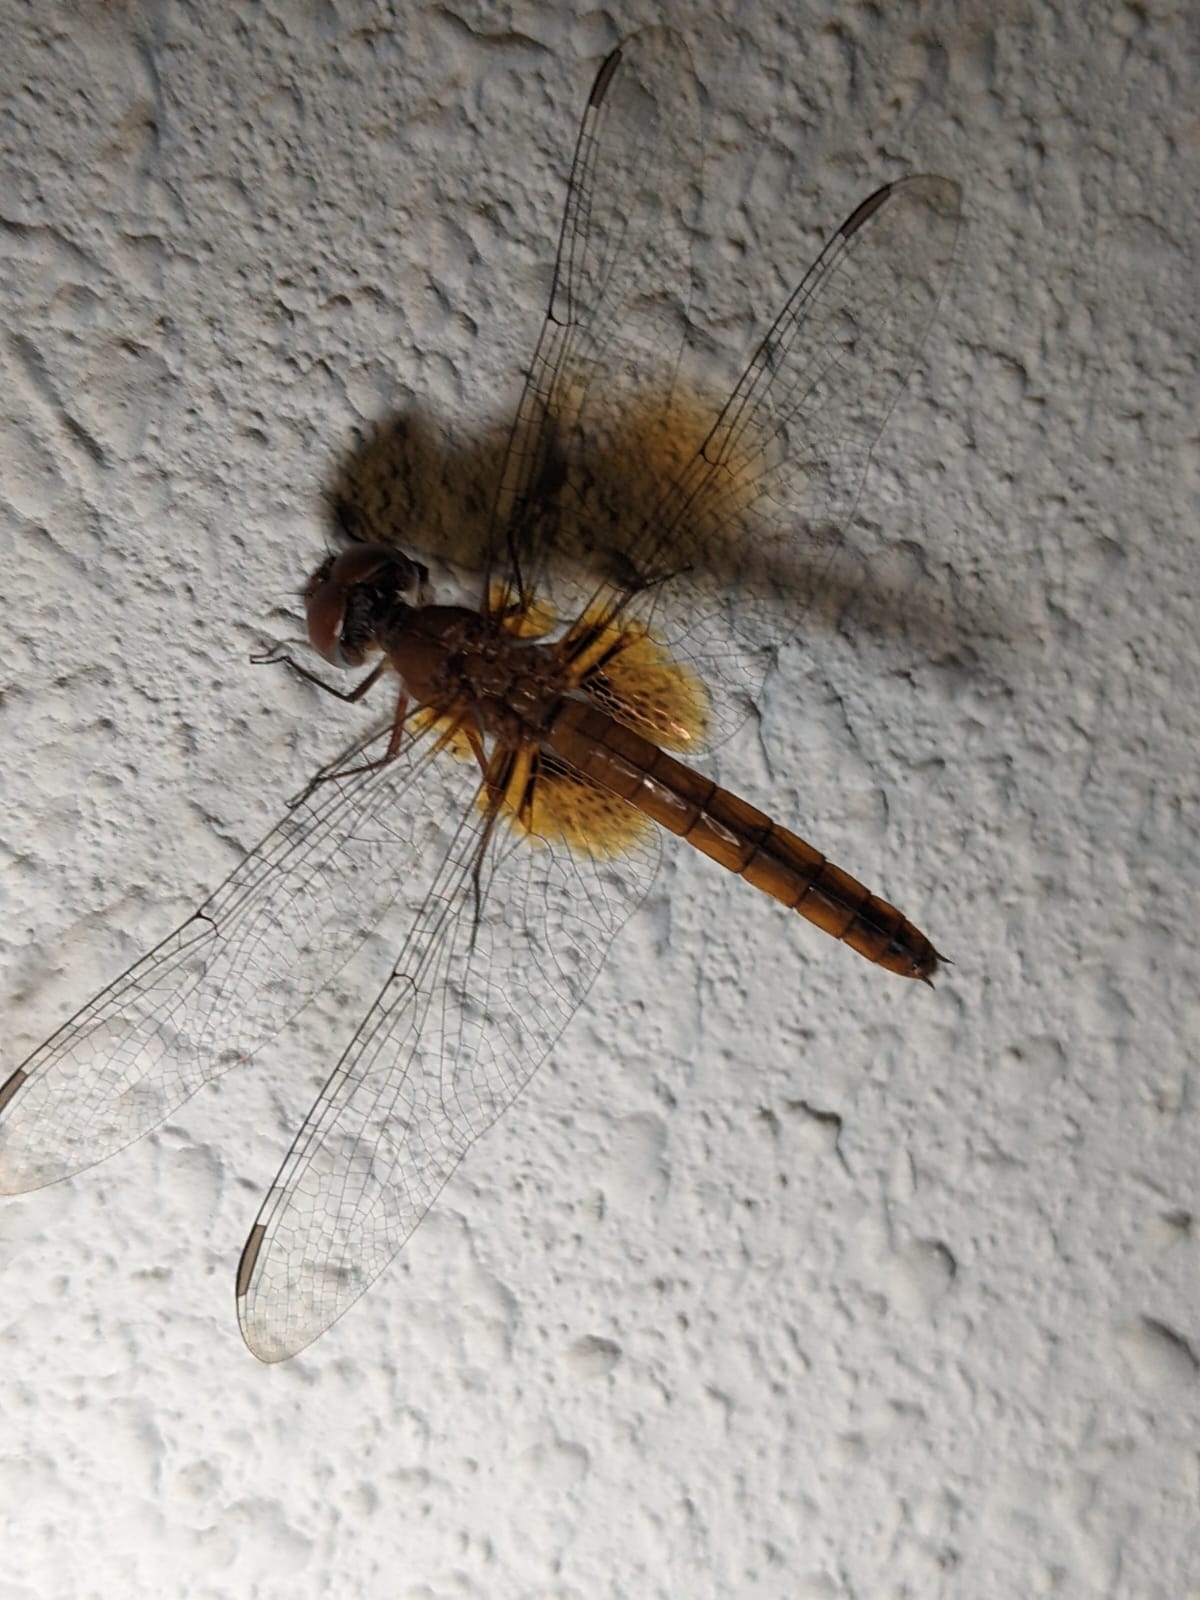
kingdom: Animalia
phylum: Arthropoda
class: Insecta
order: Odonata
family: Libellulidae
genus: Urothemis
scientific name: Urothemis signata
